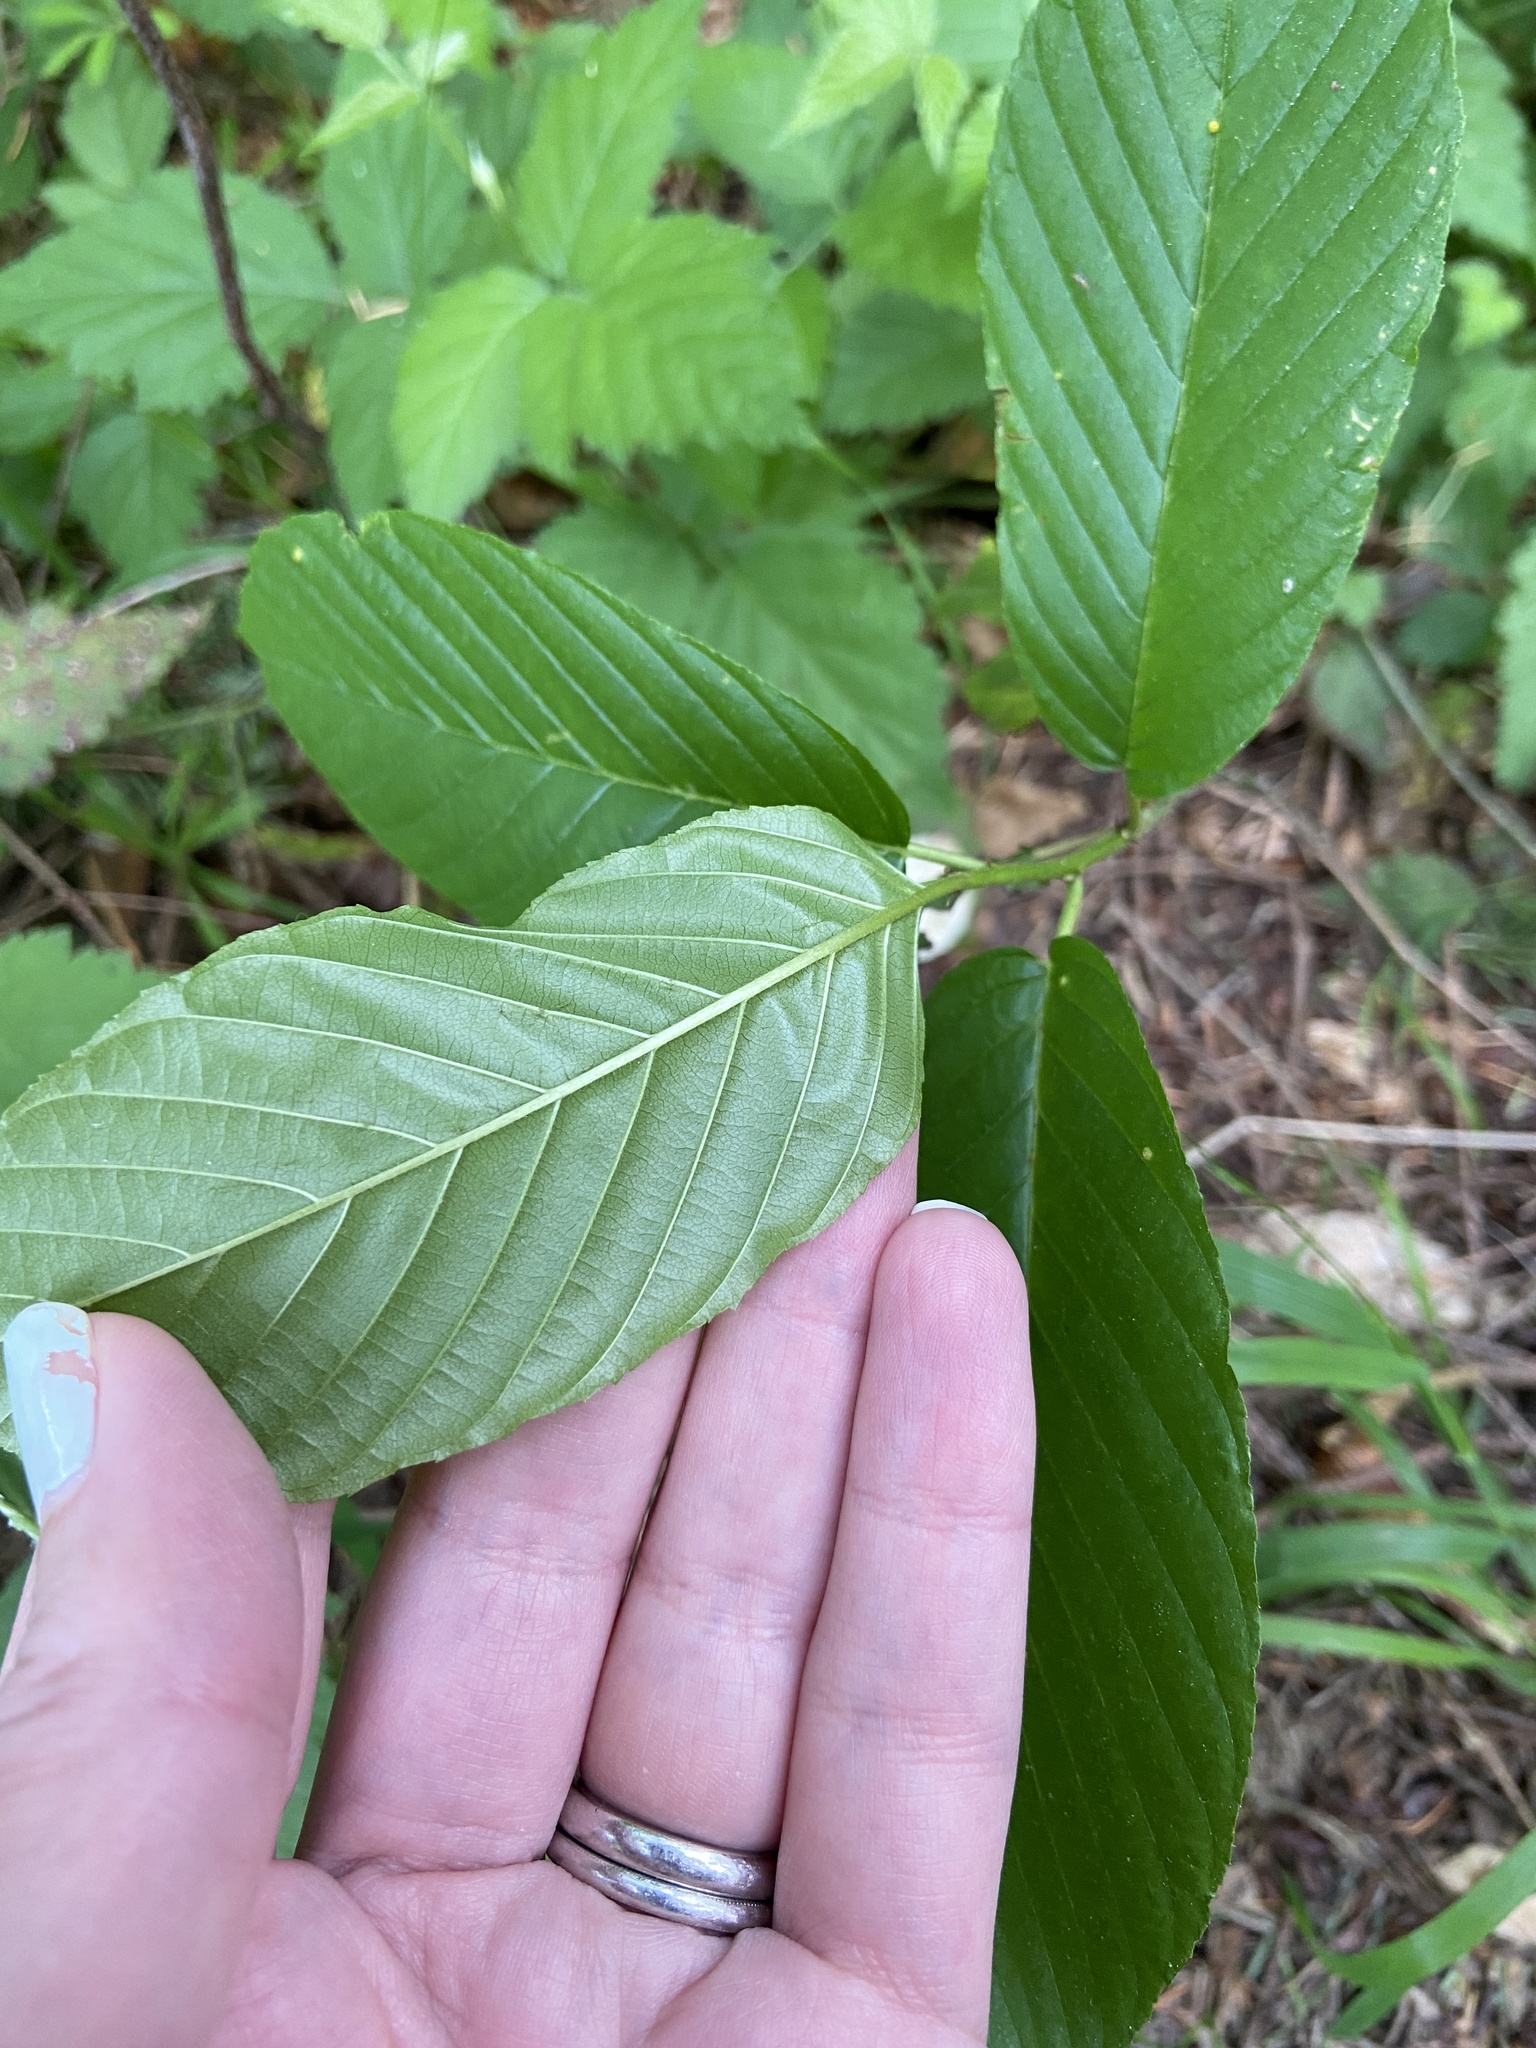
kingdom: Plantae
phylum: Tracheophyta
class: Magnoliopsida
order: Rosales
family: Rhamnaceae
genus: Frangula
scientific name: Frangula purshiana
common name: Cascara buckthorn
